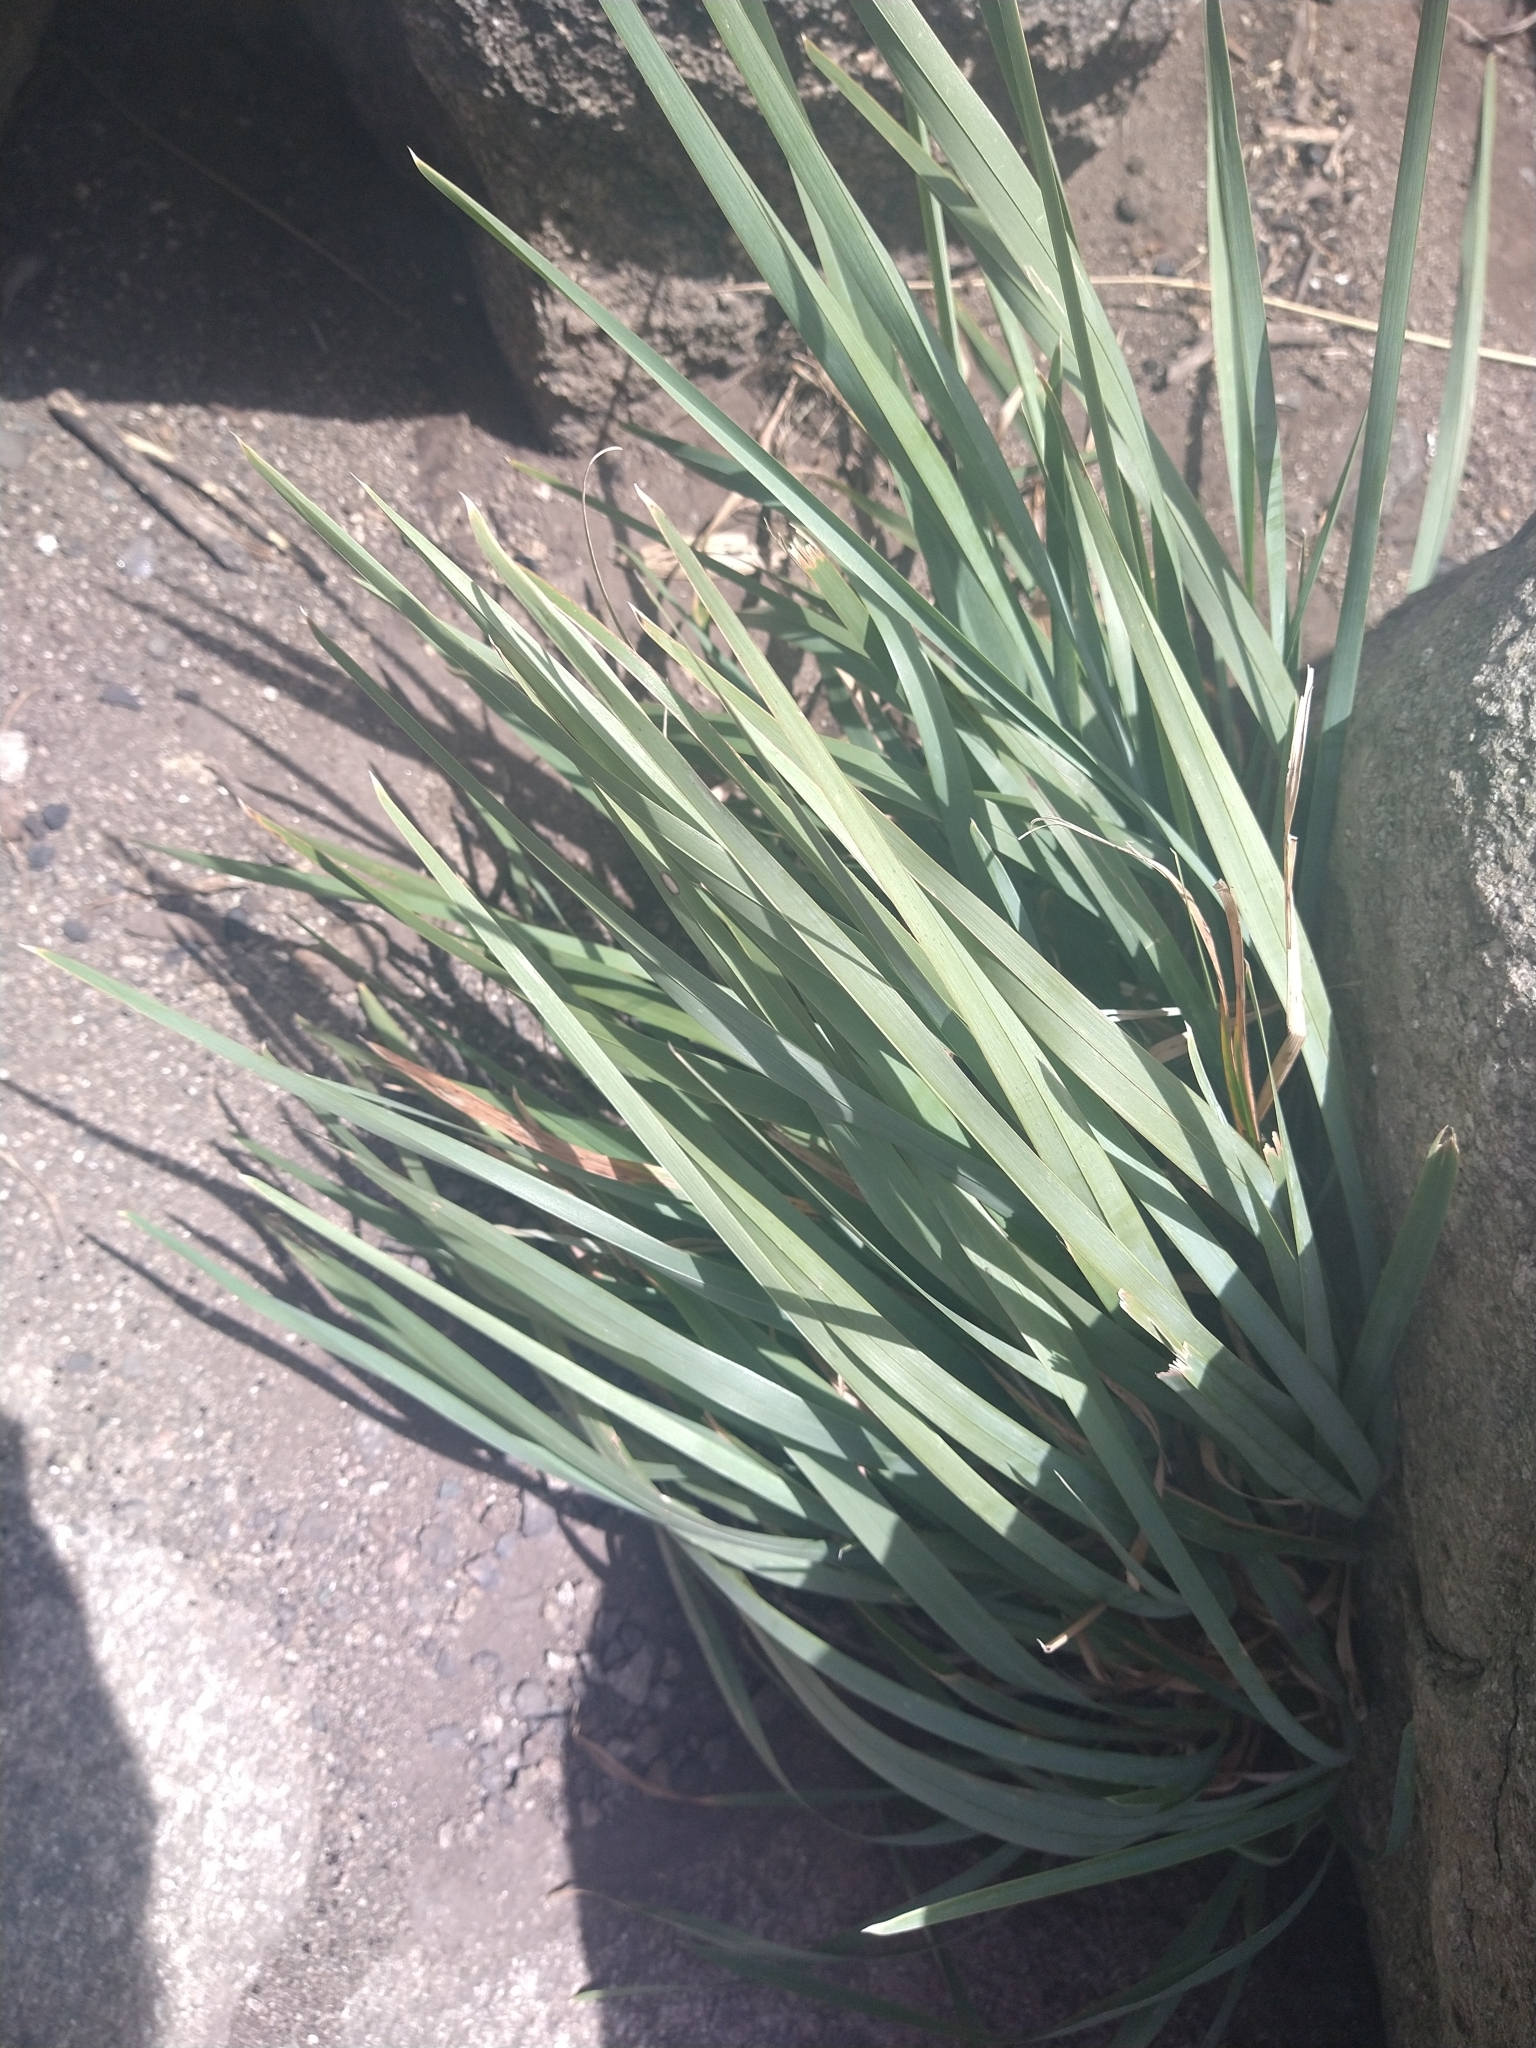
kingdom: Plantae
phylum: Tracheophyta
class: Liliopsida
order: Poales
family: Poaceae
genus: Poa
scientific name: Poa iridifolia
